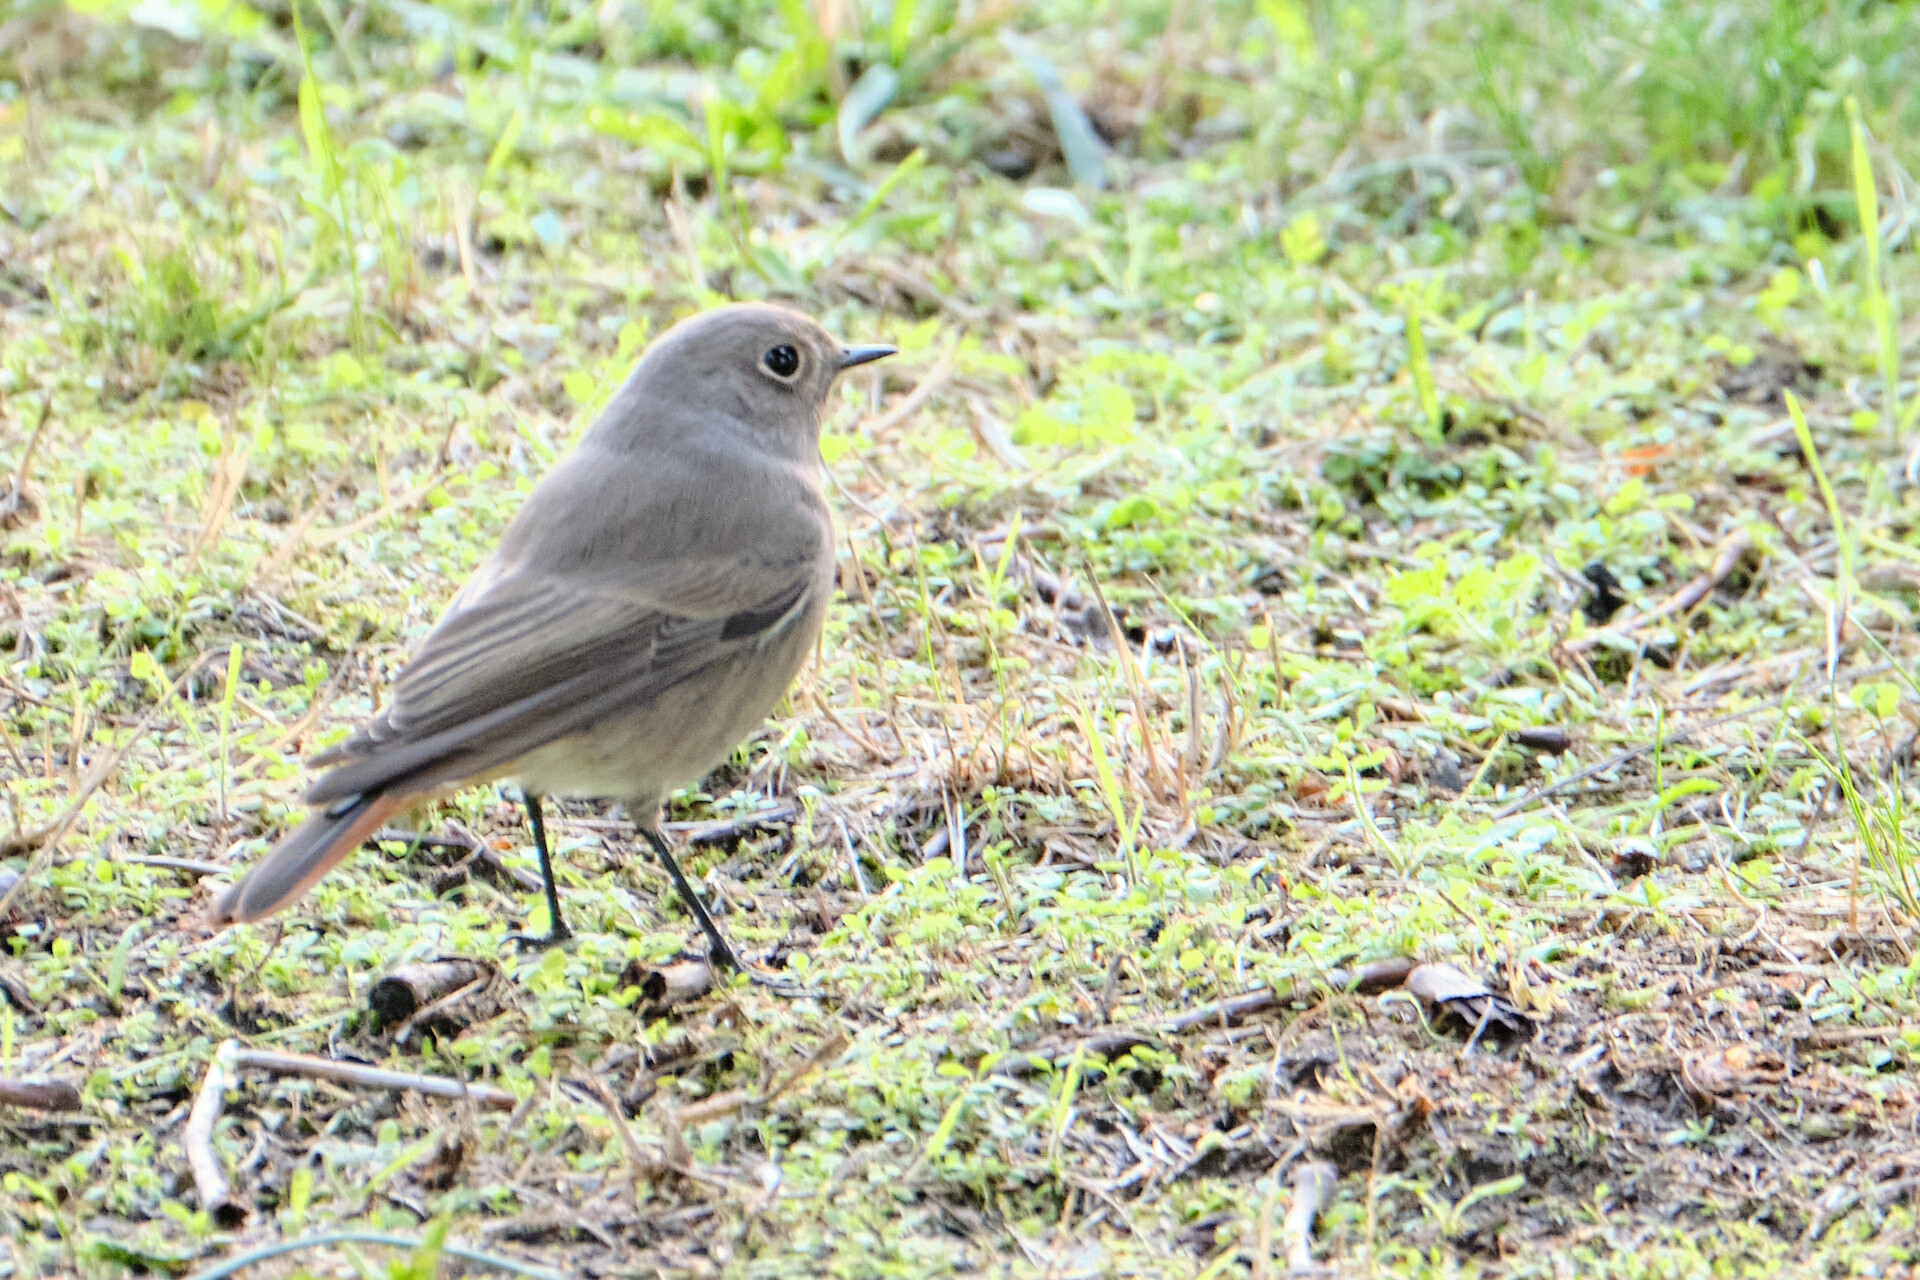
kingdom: Animalia
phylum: Chordata
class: Aves
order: Passeriformes
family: Muscicapidae
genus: Phoenicurus
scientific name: Phoenicurus ochruros
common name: Black redstart
